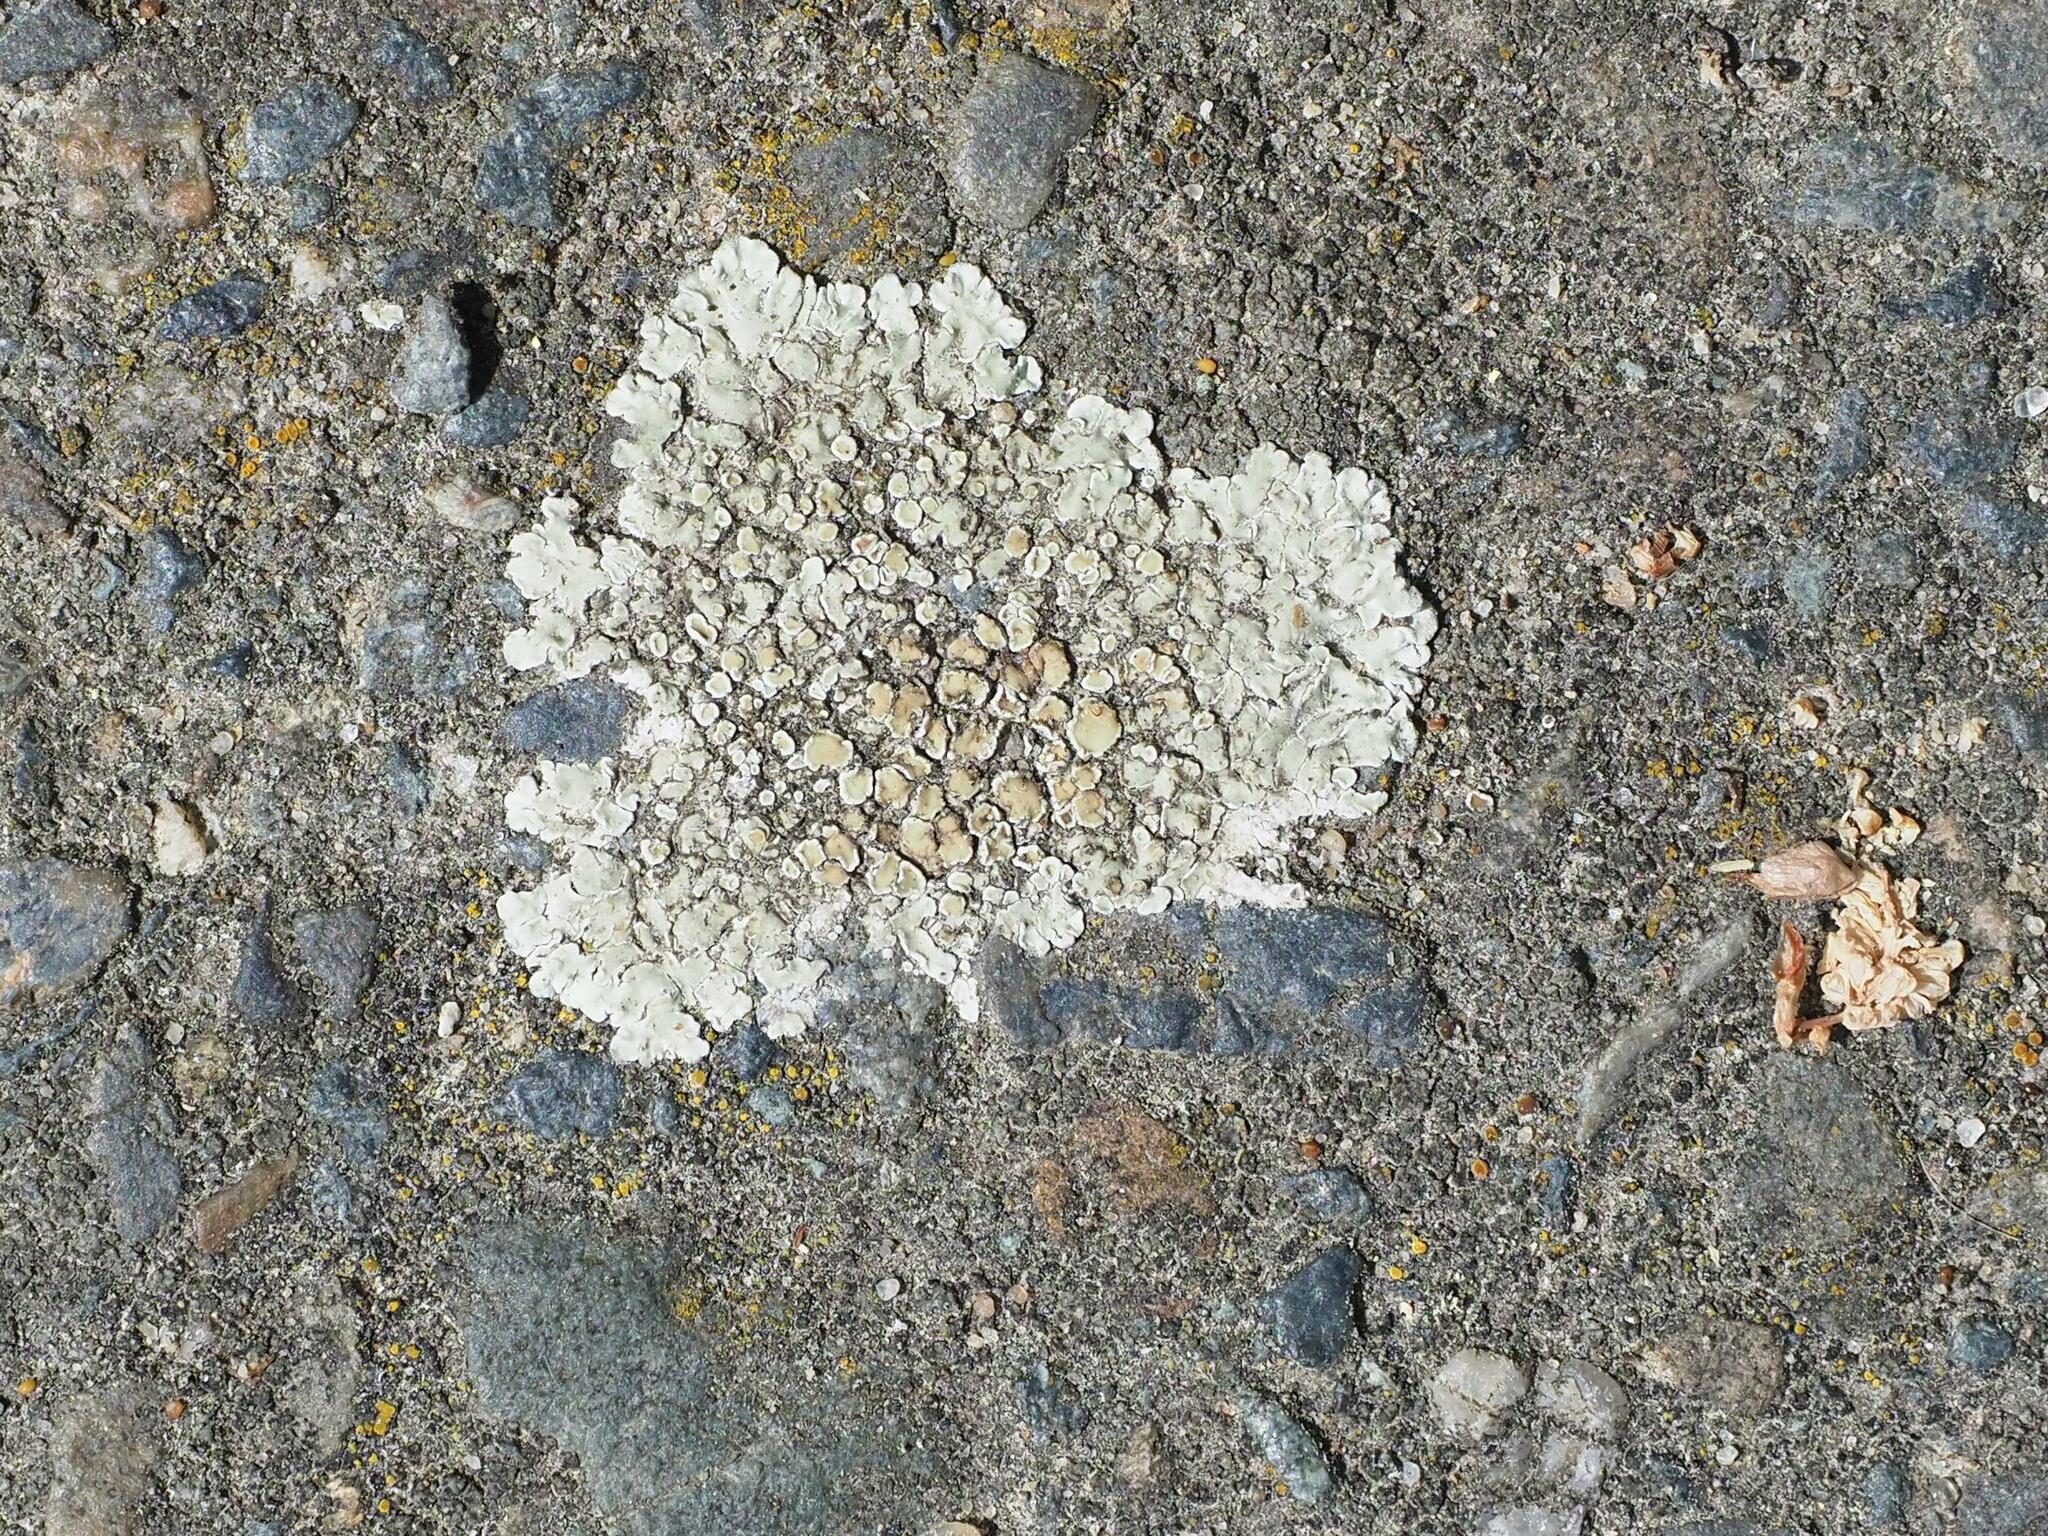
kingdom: Fungi
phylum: Ascomycota
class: Lecanoromycetes
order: Lecanorales
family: Lecanoraceae
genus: Protoparmeliopsis
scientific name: Protoparmeliopsis muralis
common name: Stonewall rim lichen
